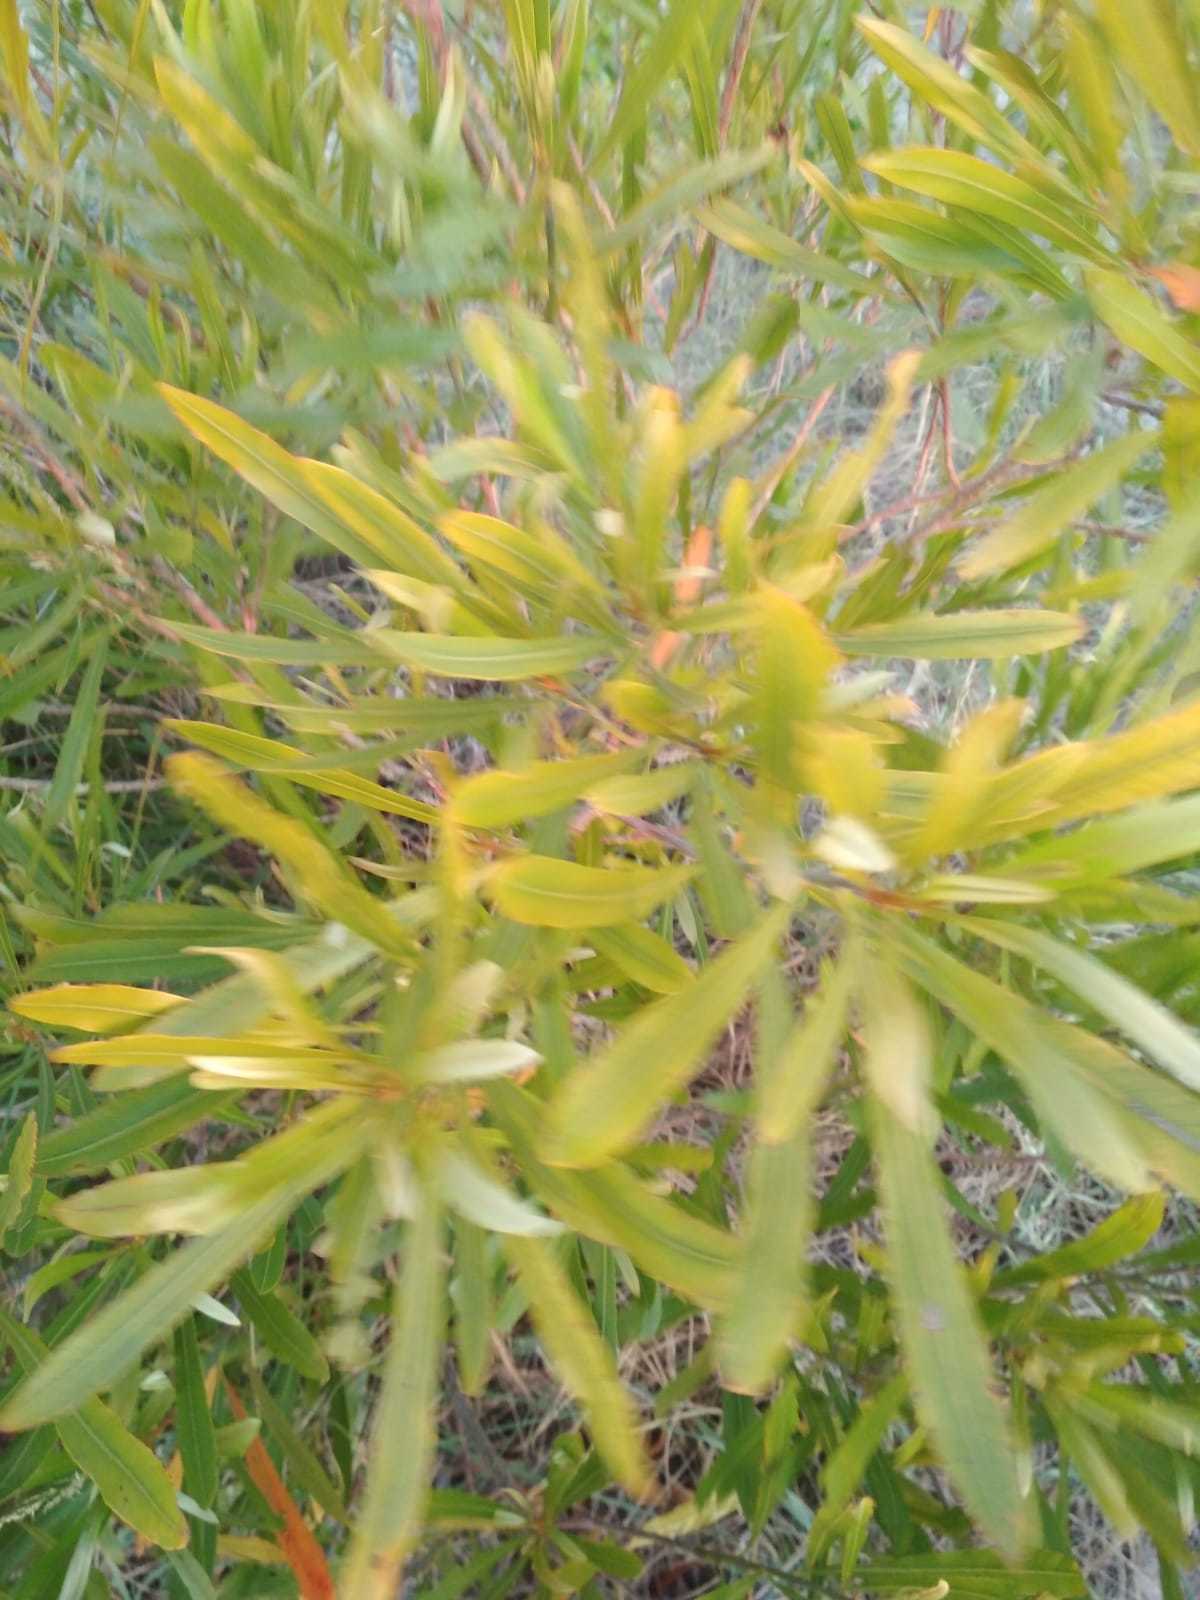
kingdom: Plantae
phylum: Tracheophyta
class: Magnoliopsida
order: Ericales
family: Sapotaceae
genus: Labatia
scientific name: Labatia salicifolia
